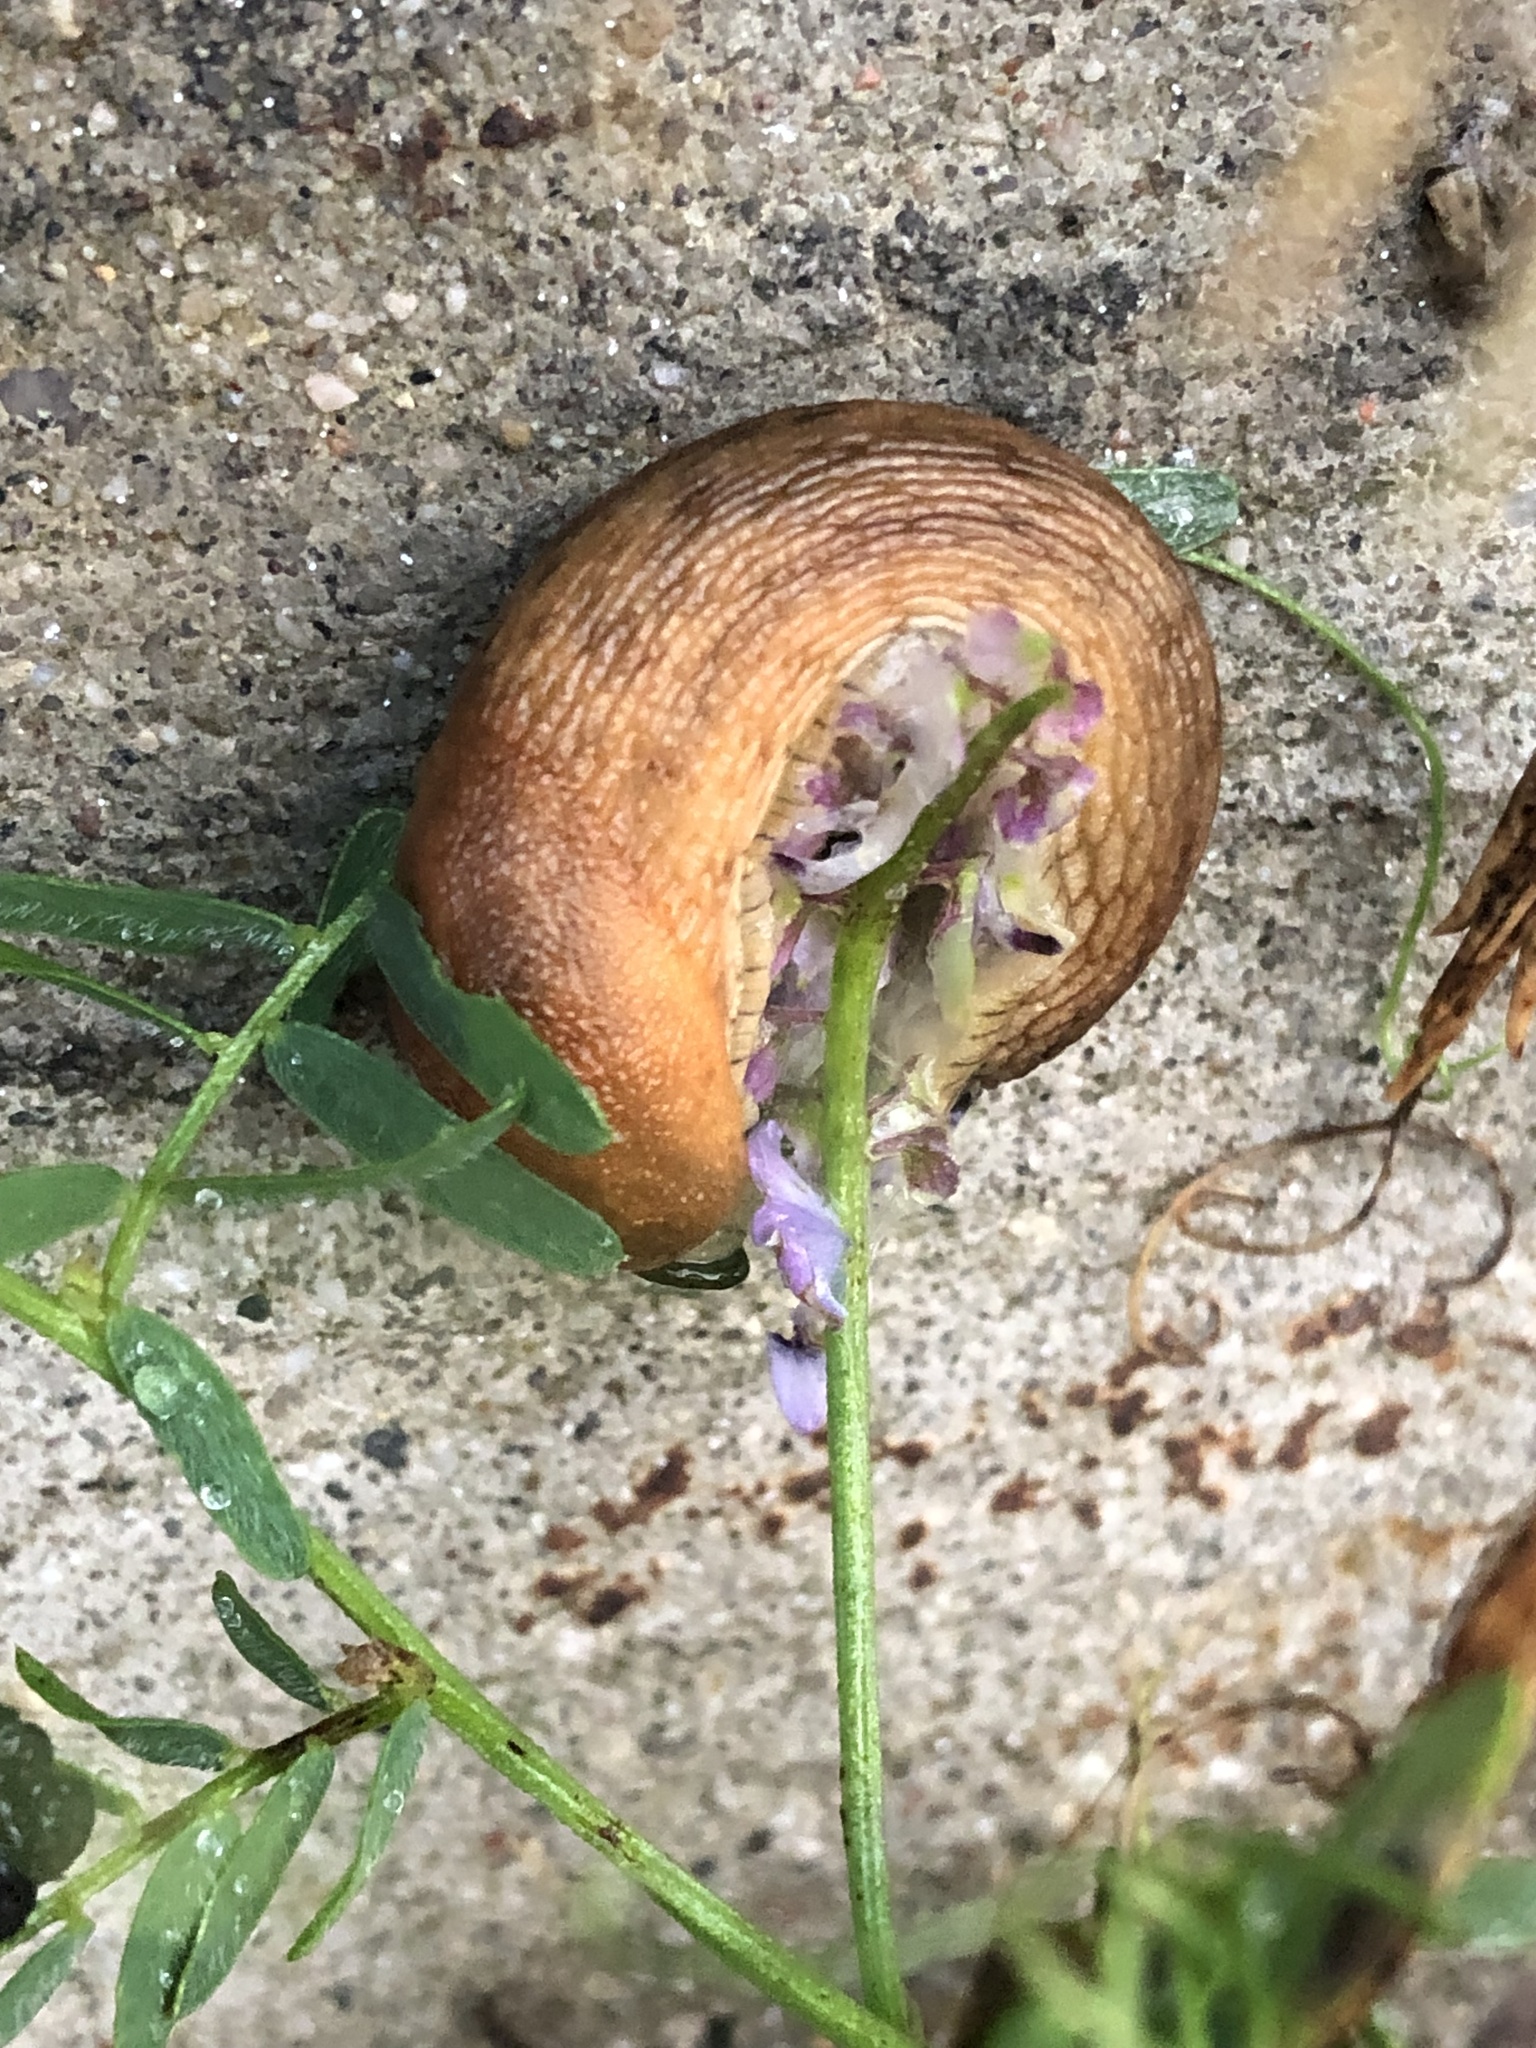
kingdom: Animalia
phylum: Mollusca
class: Gastropoda
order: Stylommatophora
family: Arionidae
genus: Arion
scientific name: Arion subfuscus
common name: Dusky arion
